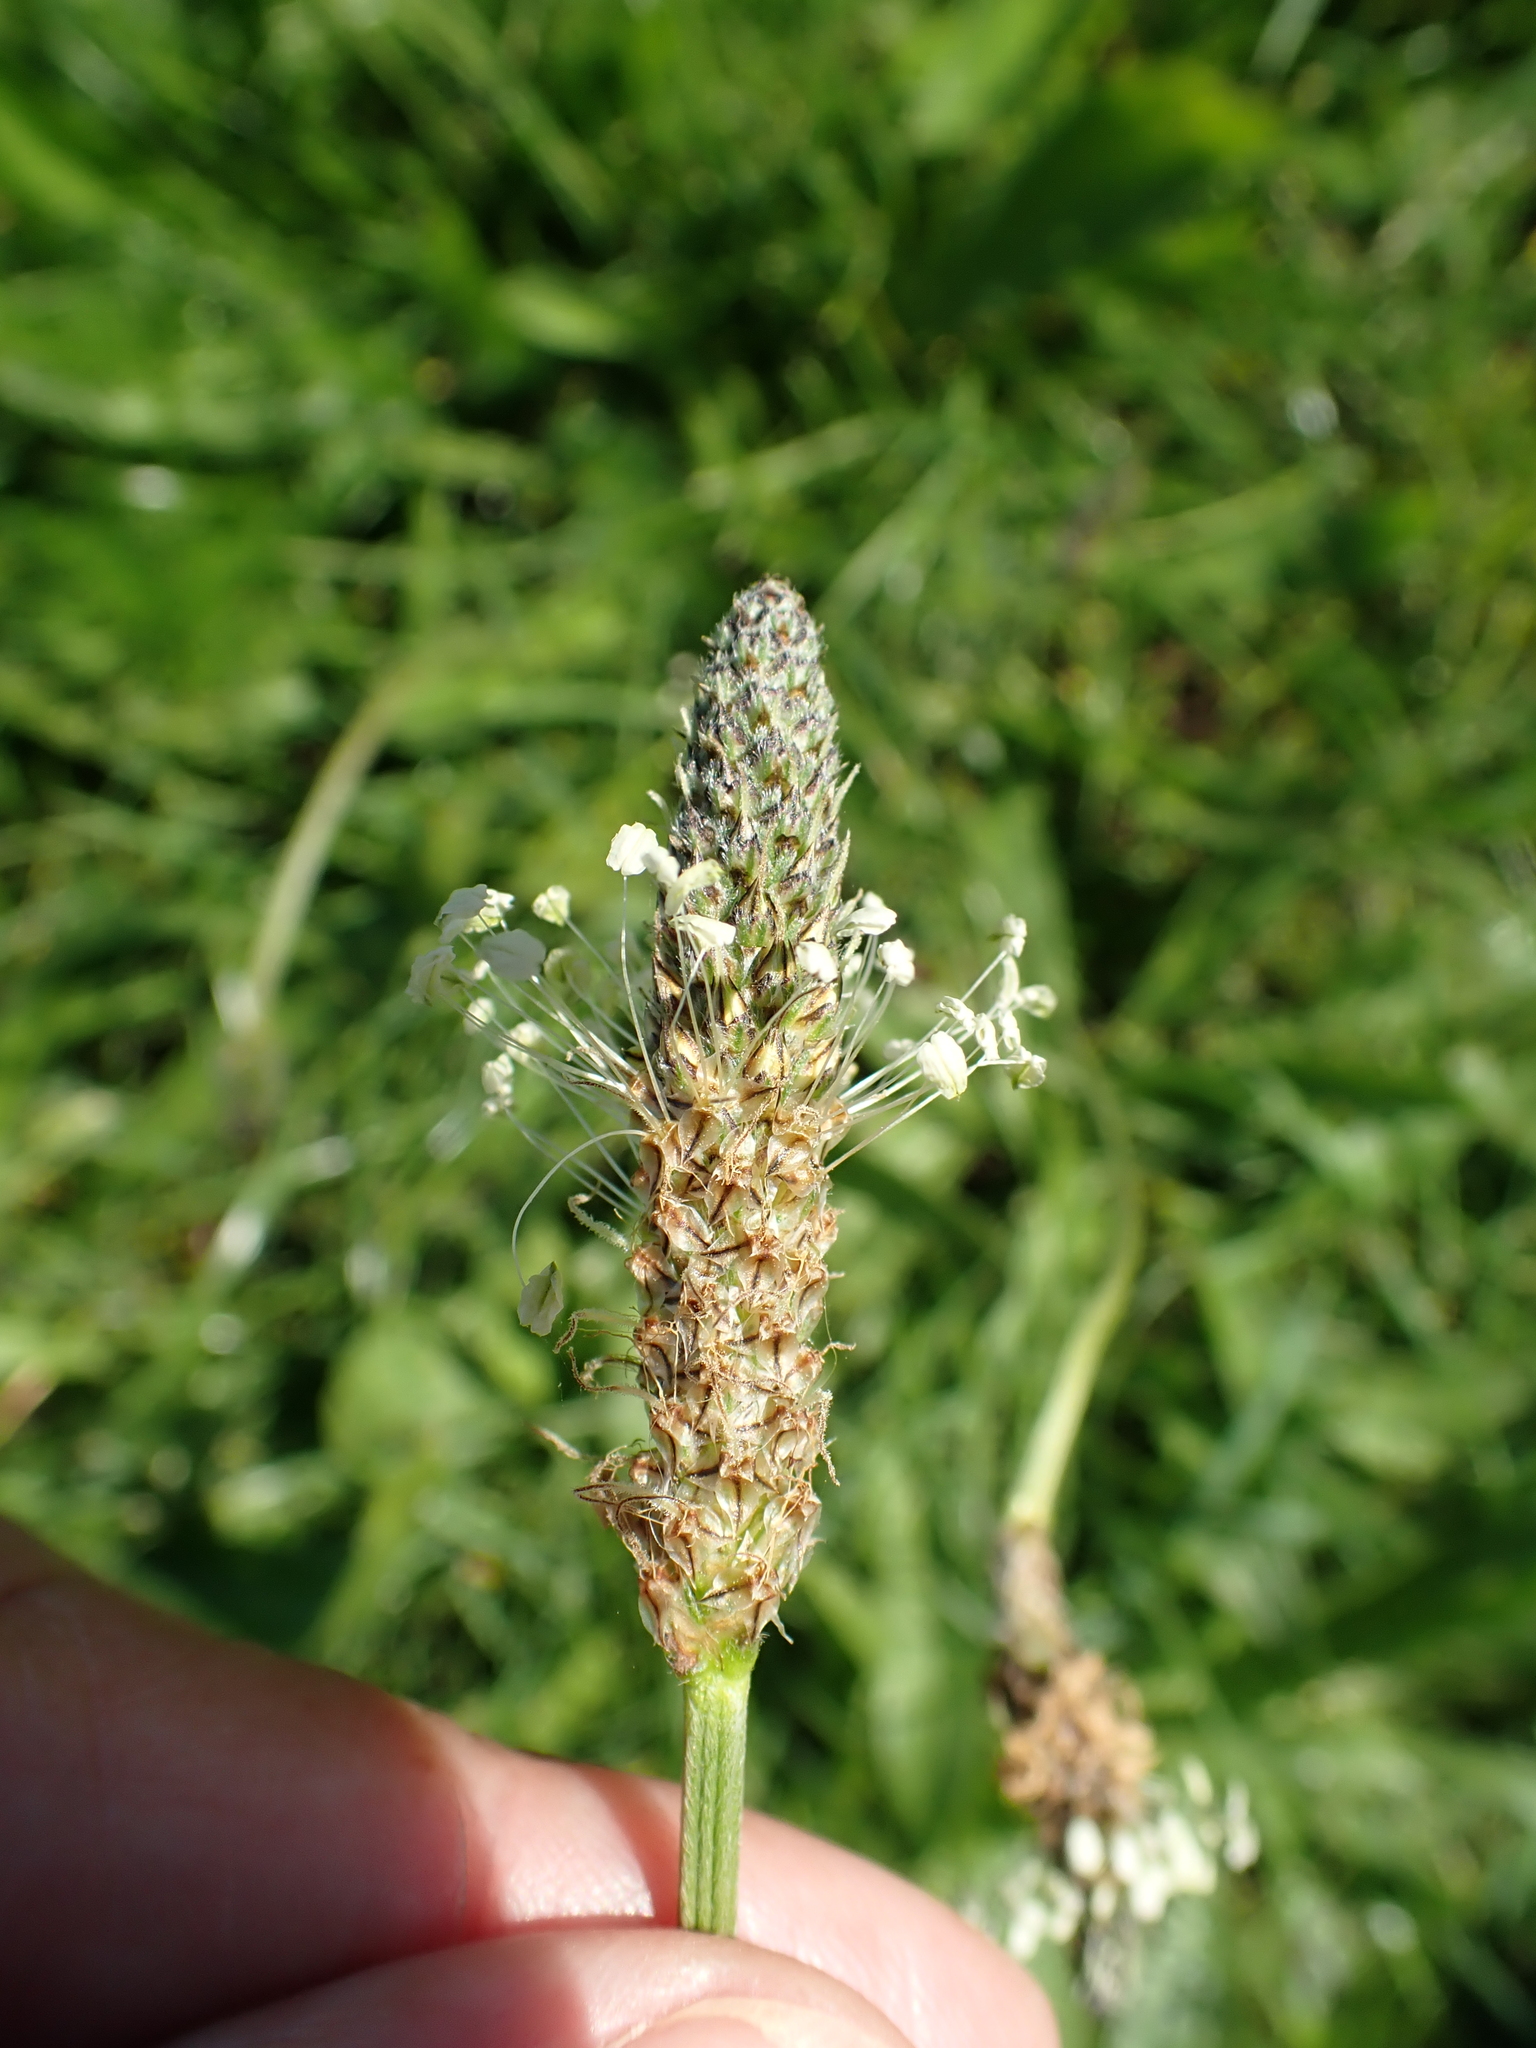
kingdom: Plantae
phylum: Tracheophyta
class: Magnoliopsida
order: Lamiales
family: Plantaginaceae
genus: Plantago
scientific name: Plantago lanceolata
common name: Ribwort plantain
